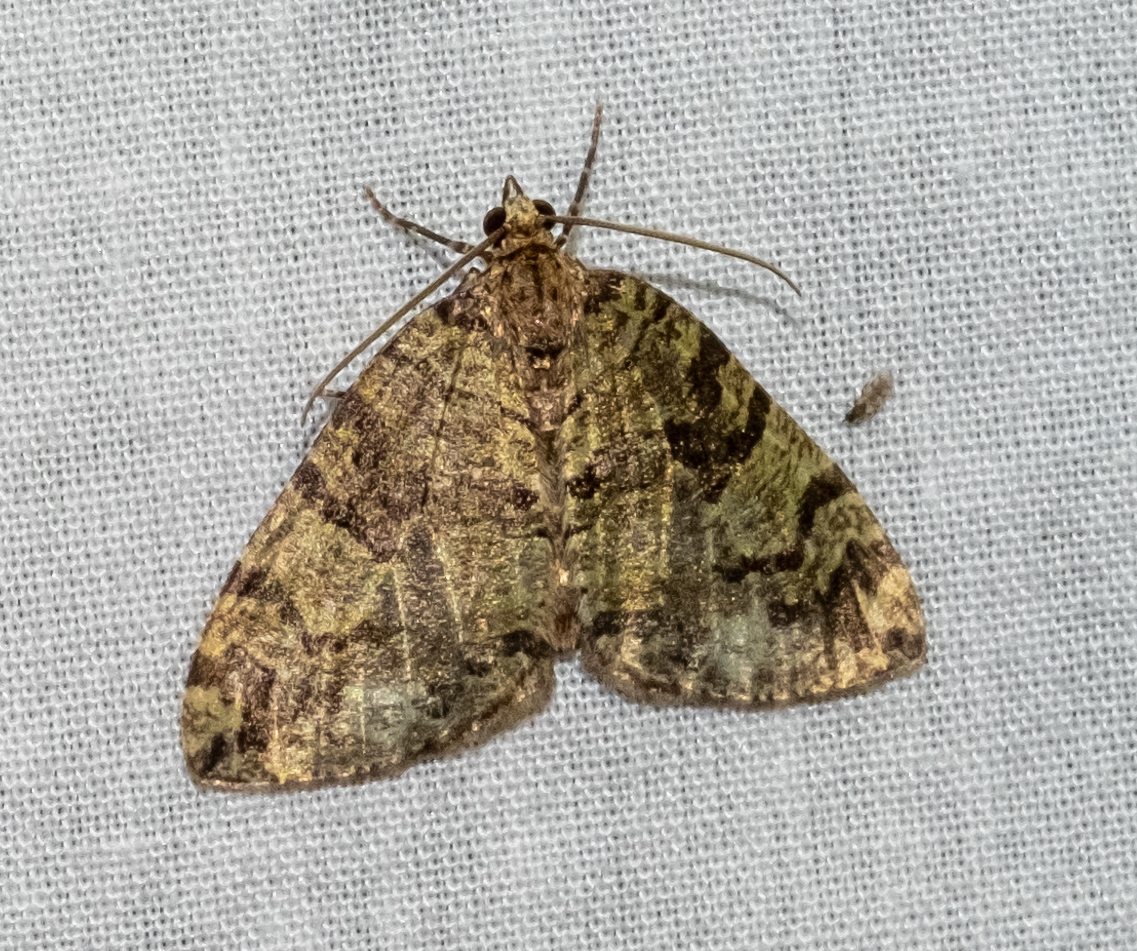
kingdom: Animalia
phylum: Arthropoda
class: Insecta
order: Lepidoptera
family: Geometridae
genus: Hydriomena
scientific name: Hydriomena furcata
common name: July highflyer
